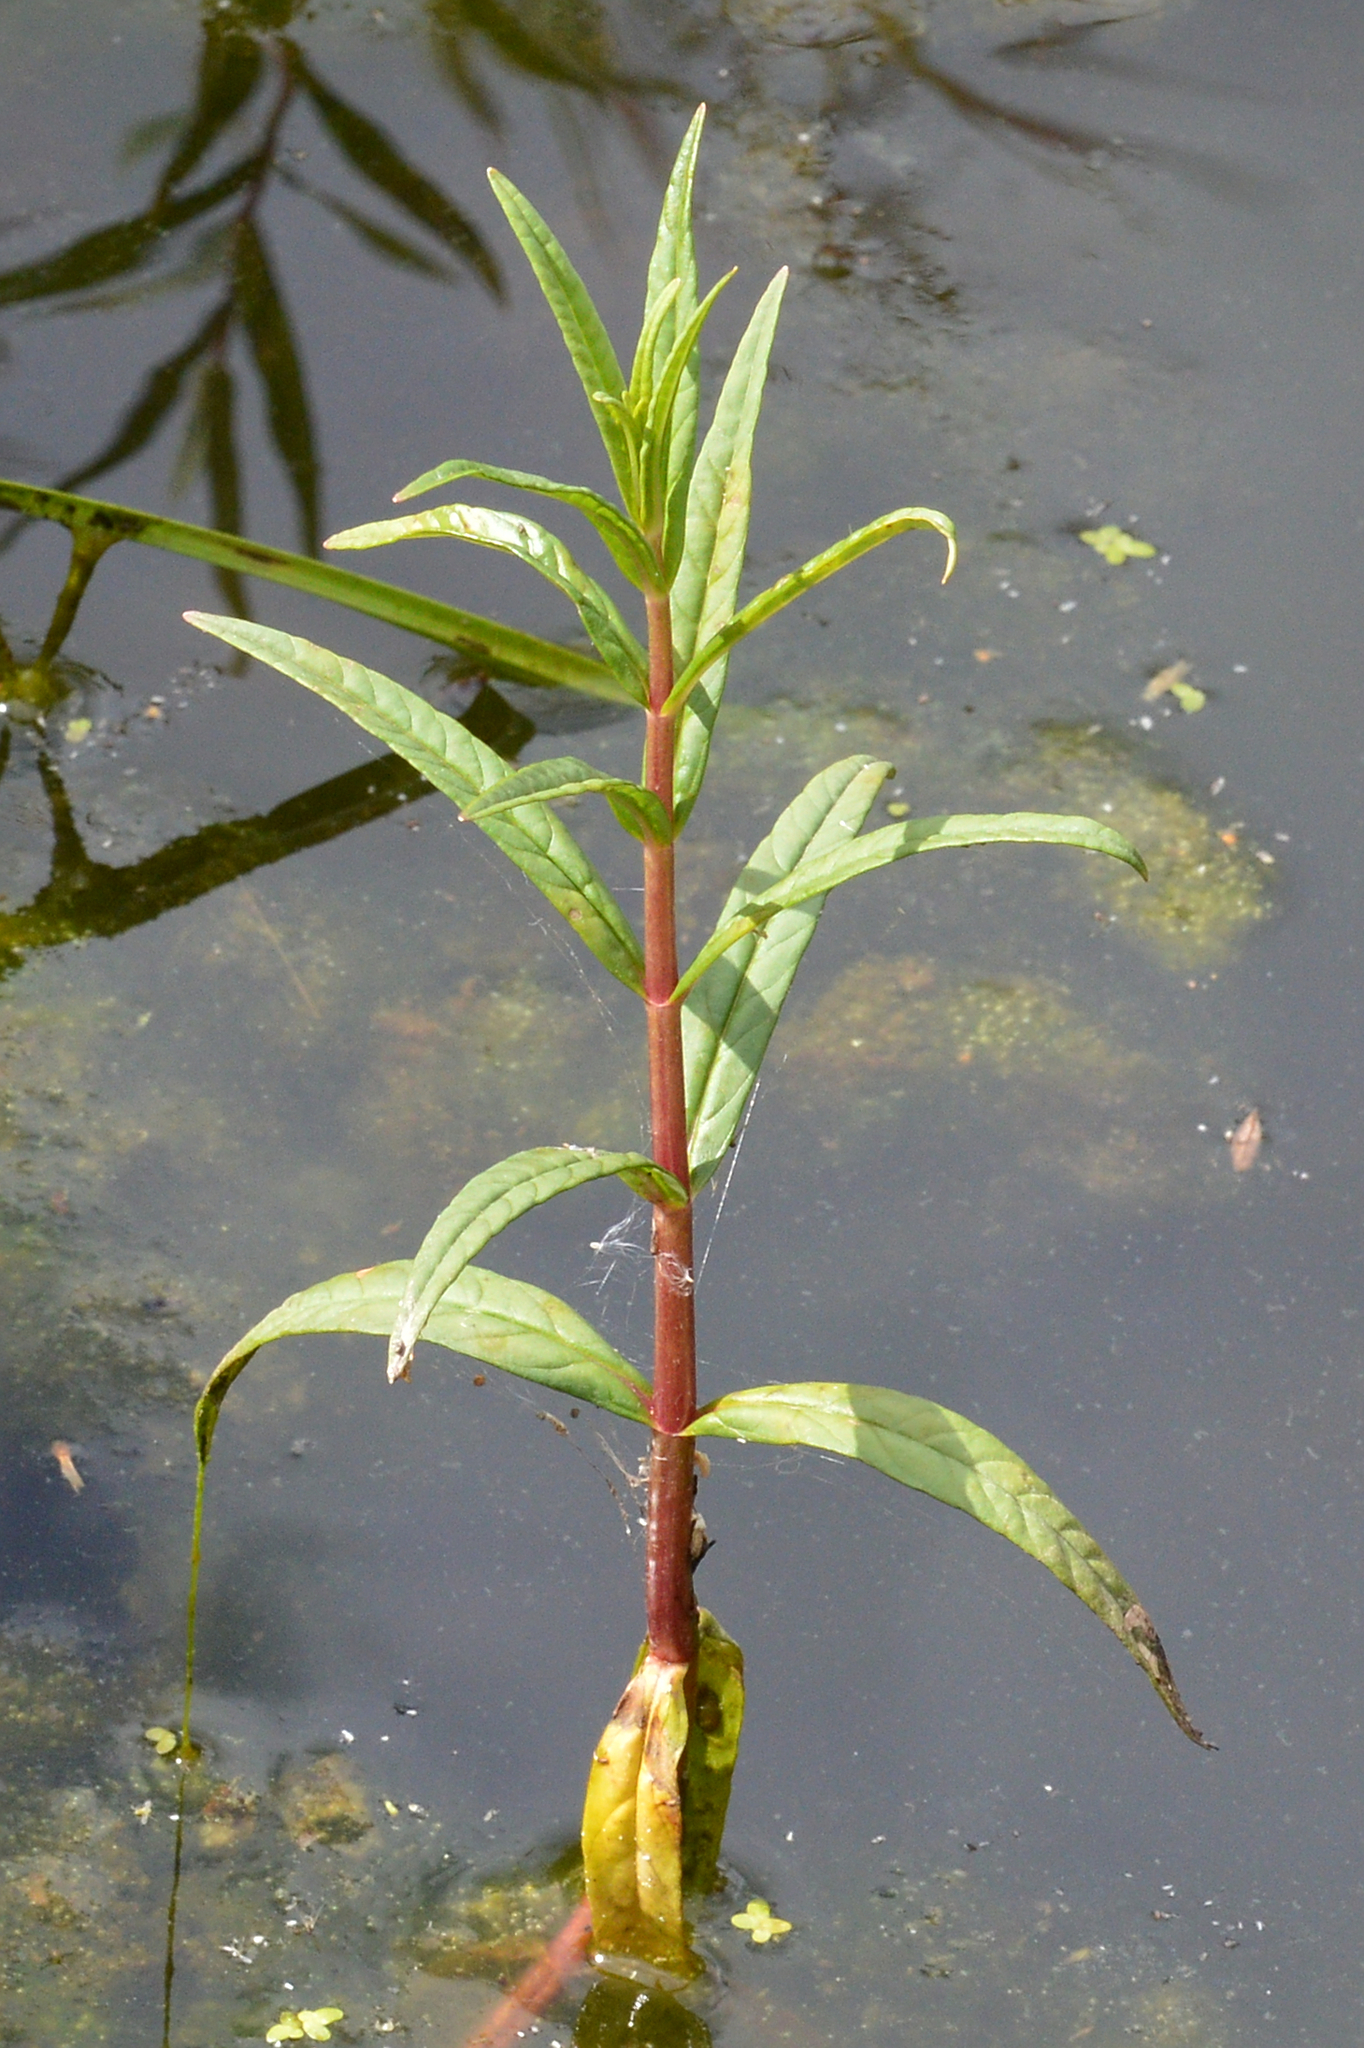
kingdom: Plantae
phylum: Tracheophyta
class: Magnoliopsida
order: Ericales
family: Primulaceae
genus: Lysimachia
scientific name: Lysimachia thyrsiflora
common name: Tufted loosestrife
